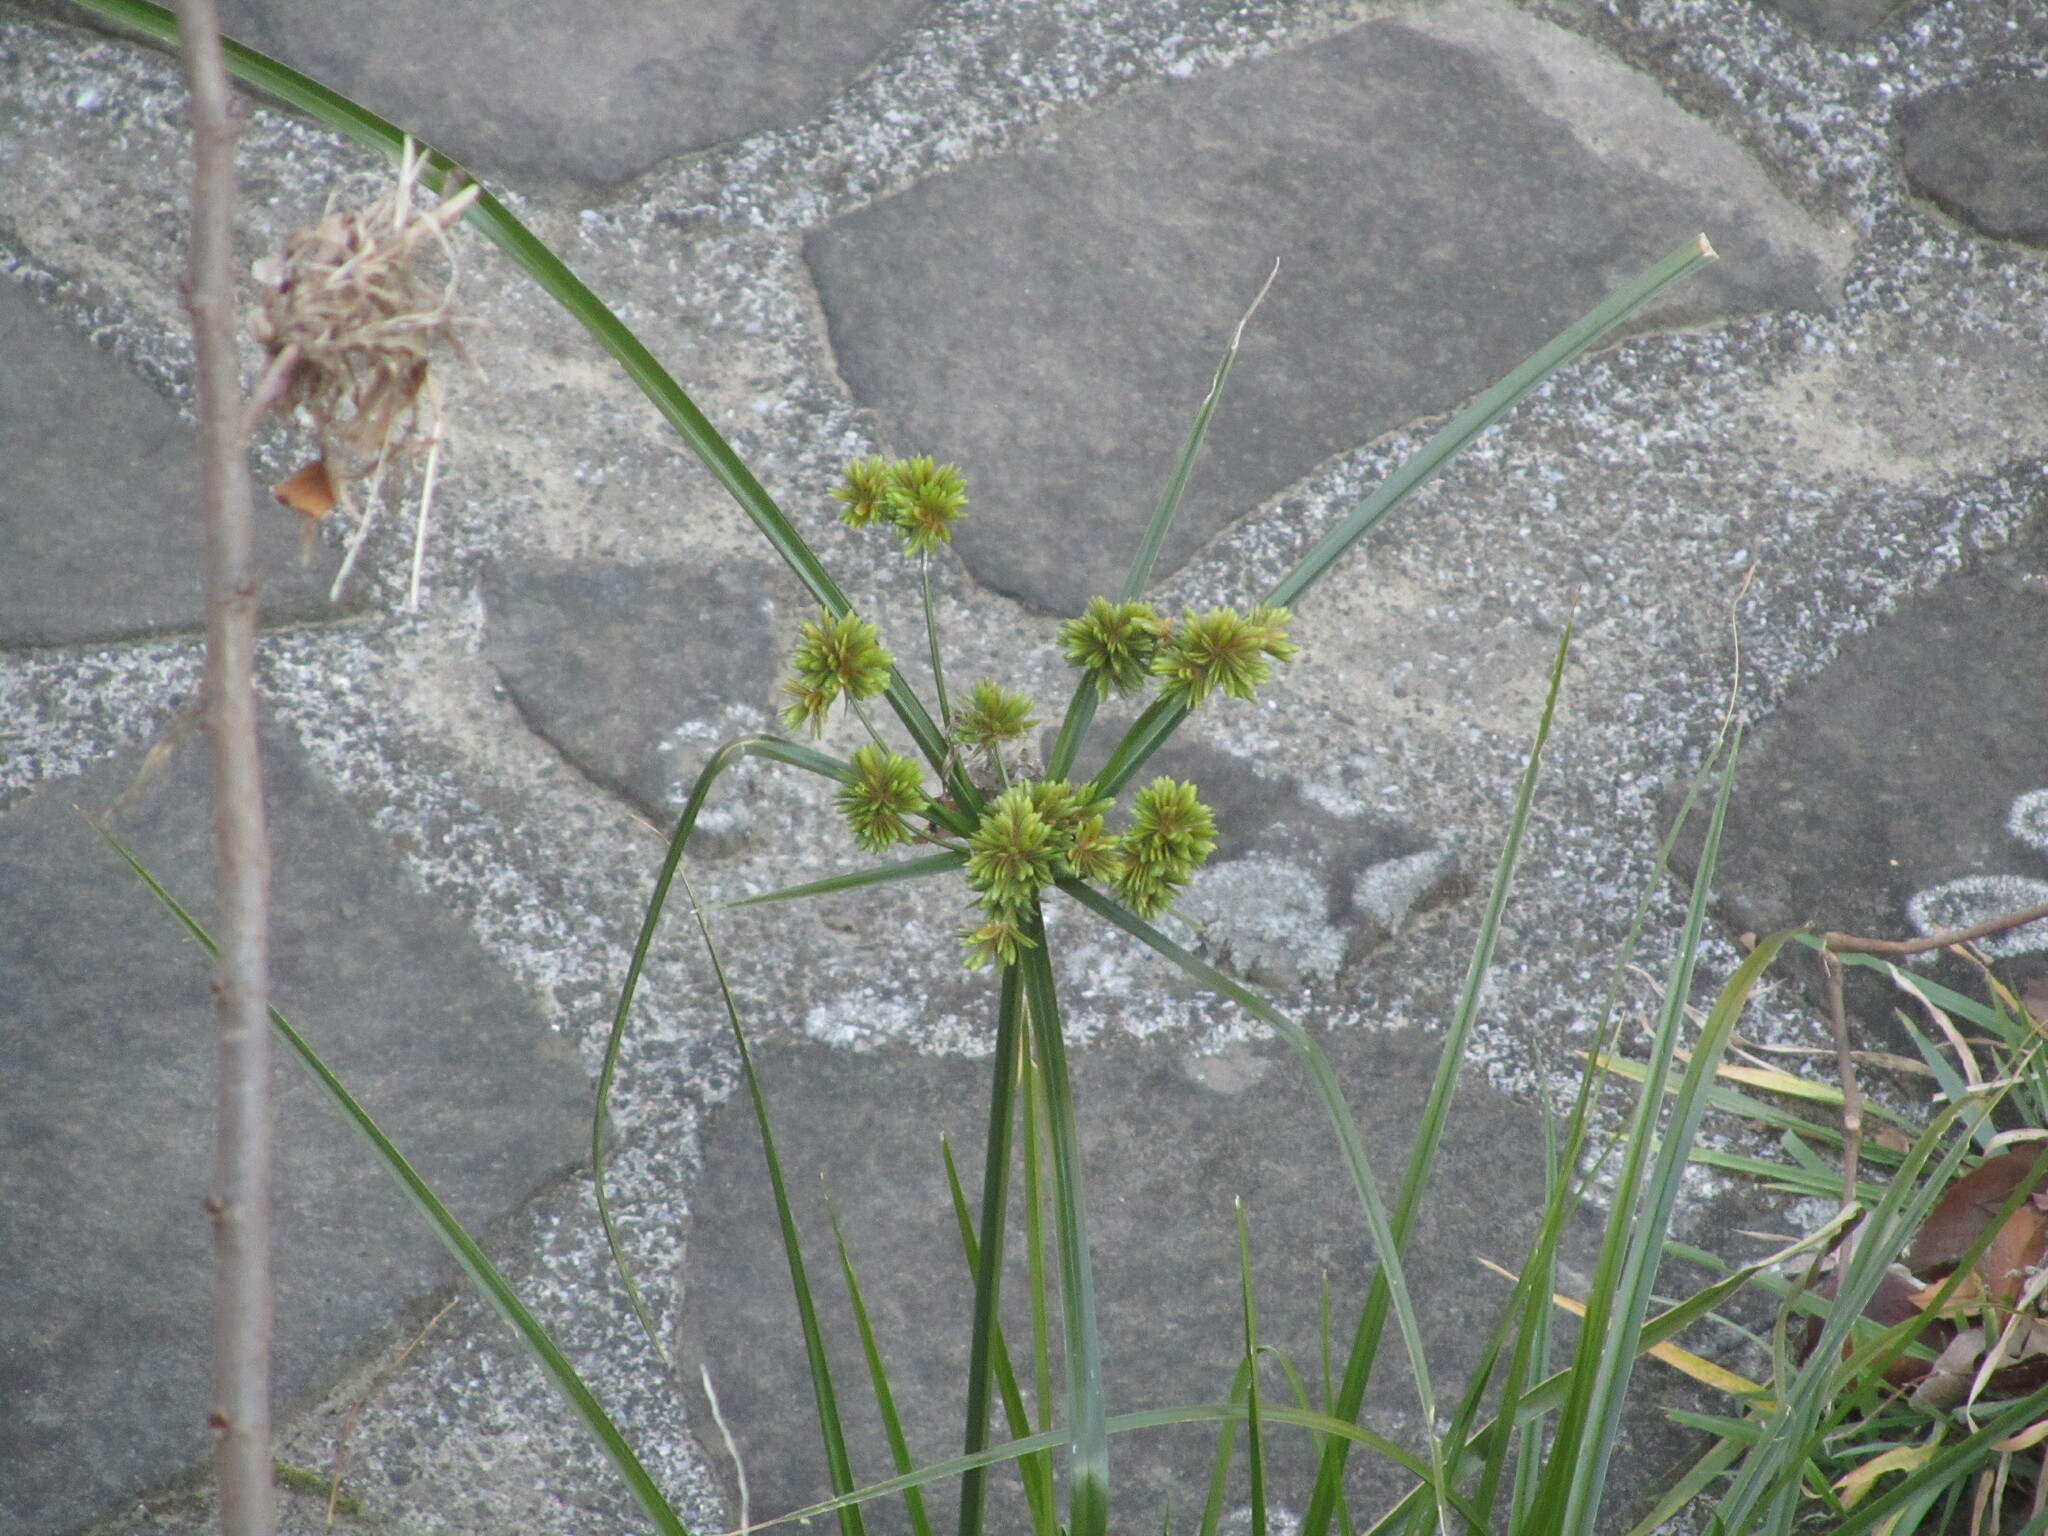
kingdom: Plantae
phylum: Tracheophyta
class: Liliopsida
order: Poales
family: Cyperaceae
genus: Cyperus
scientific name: Cyperus eragrostis
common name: Tall flatsedge
